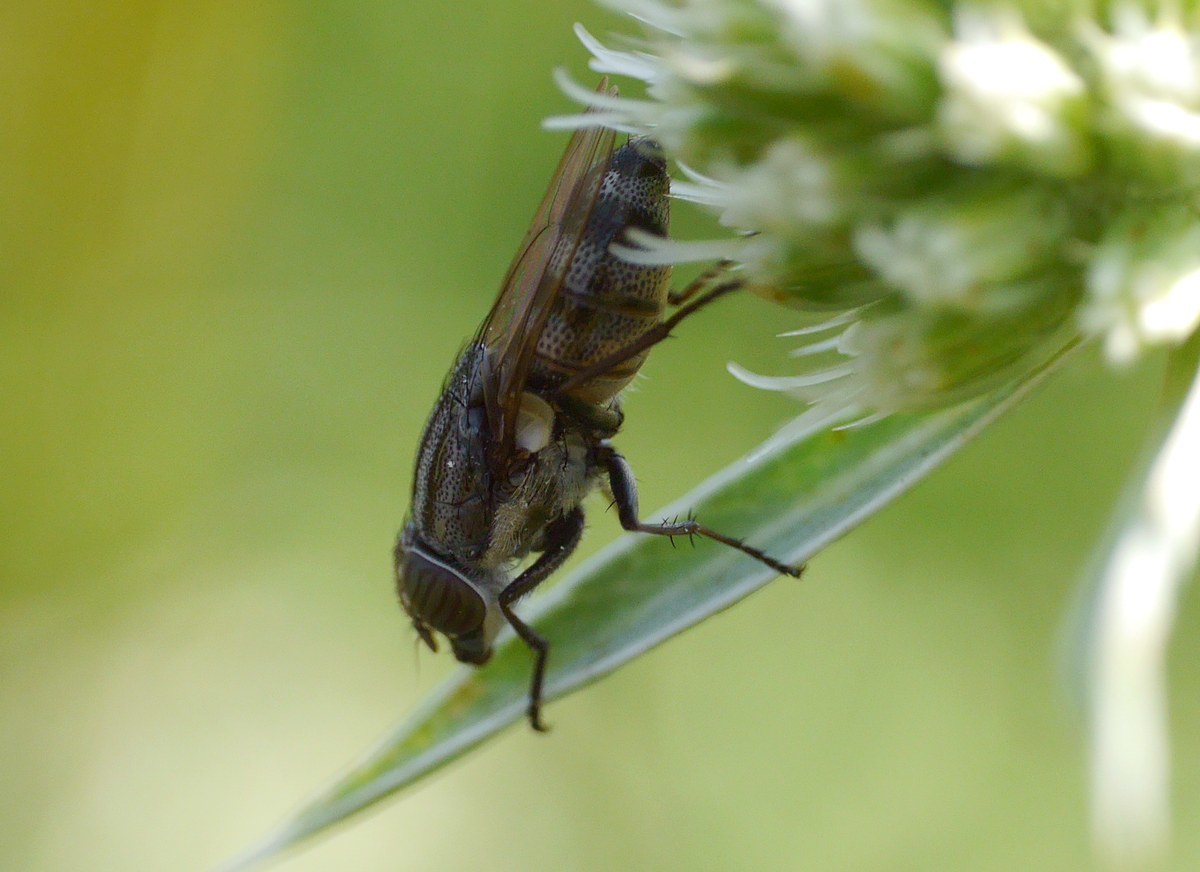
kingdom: Animalia
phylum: Arthropoda
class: Insecta
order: Diptera
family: Calliphoridae
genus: Stomorhina
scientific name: Stomorhina lunata
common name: Locust blowfly
